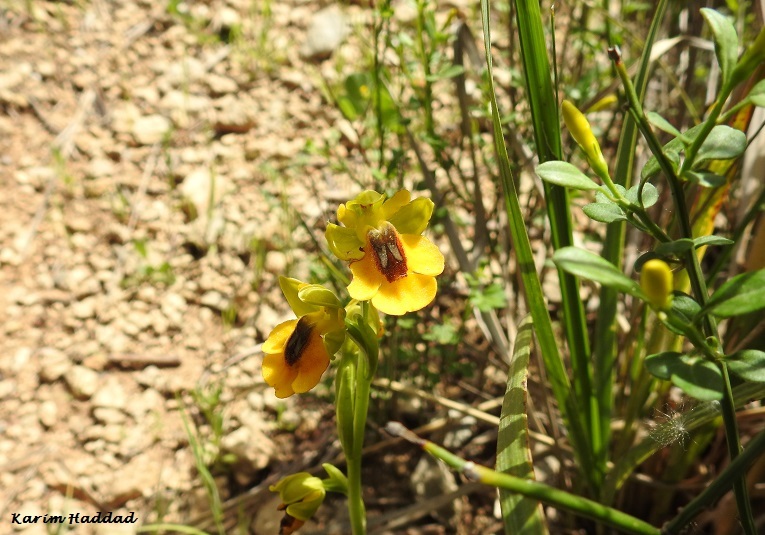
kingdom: Plantae
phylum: Tracheophyta
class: Liliopsida
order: Asparagales
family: Orchidaceae
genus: Ophrys
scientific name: Ophrys lutea
